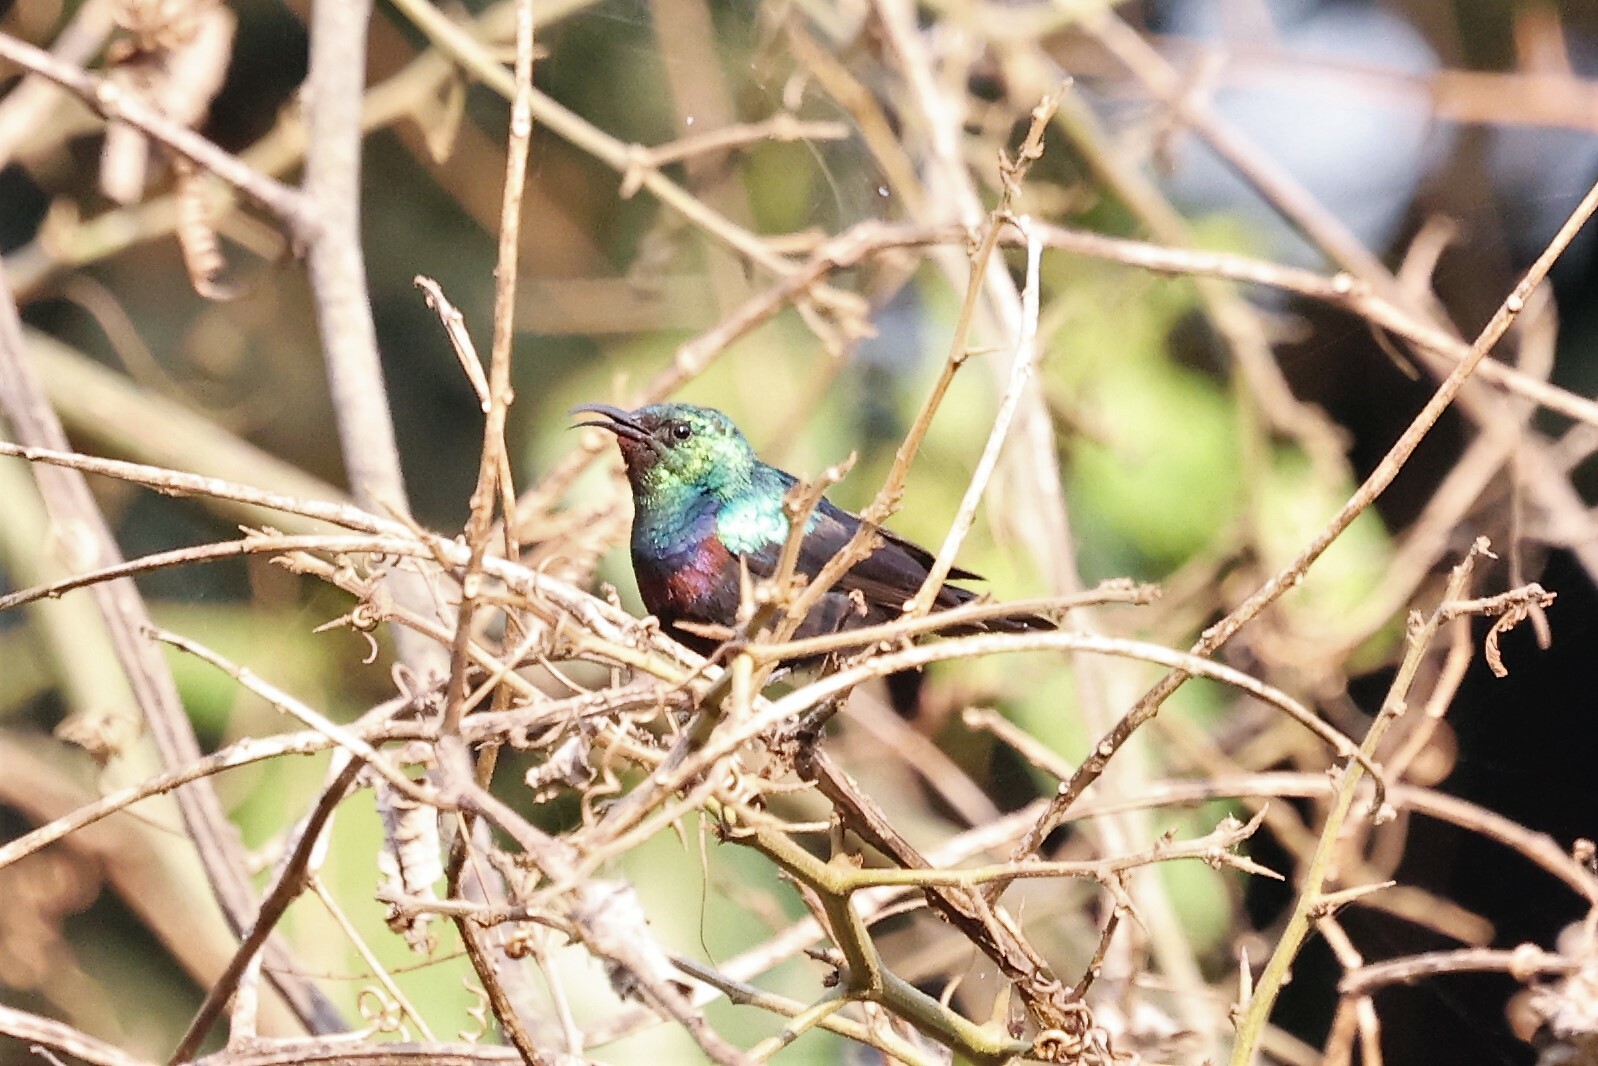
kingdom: Animalia
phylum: Chordata
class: Aves
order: Passeriformes
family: Nectariniidae
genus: Cinnyris
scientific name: Cinnyris bifasciatus
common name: Purple-banded sunbird
